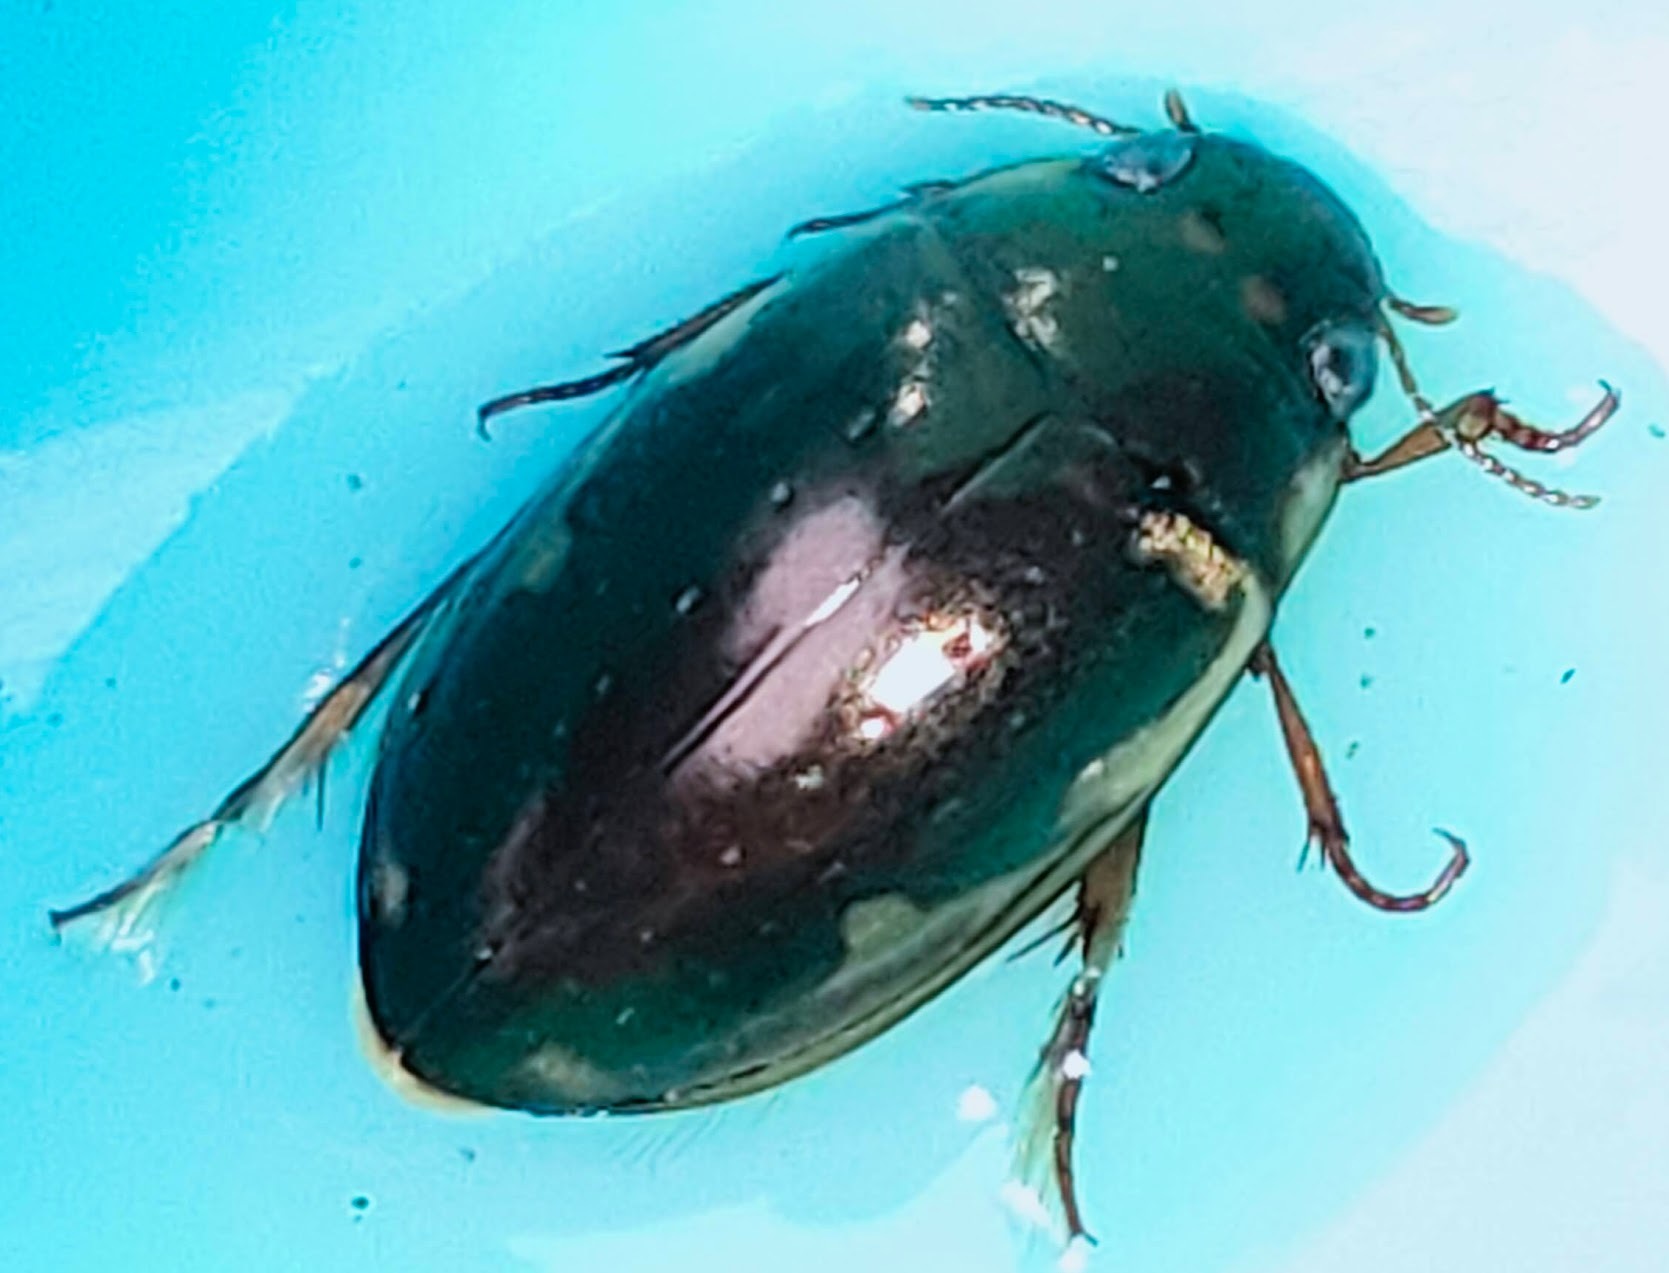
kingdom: Animalia
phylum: Arthropoda
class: Insecta
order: Coleoptera
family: Dytiscidae
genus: Platambus
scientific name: Platambus fimbriatus
